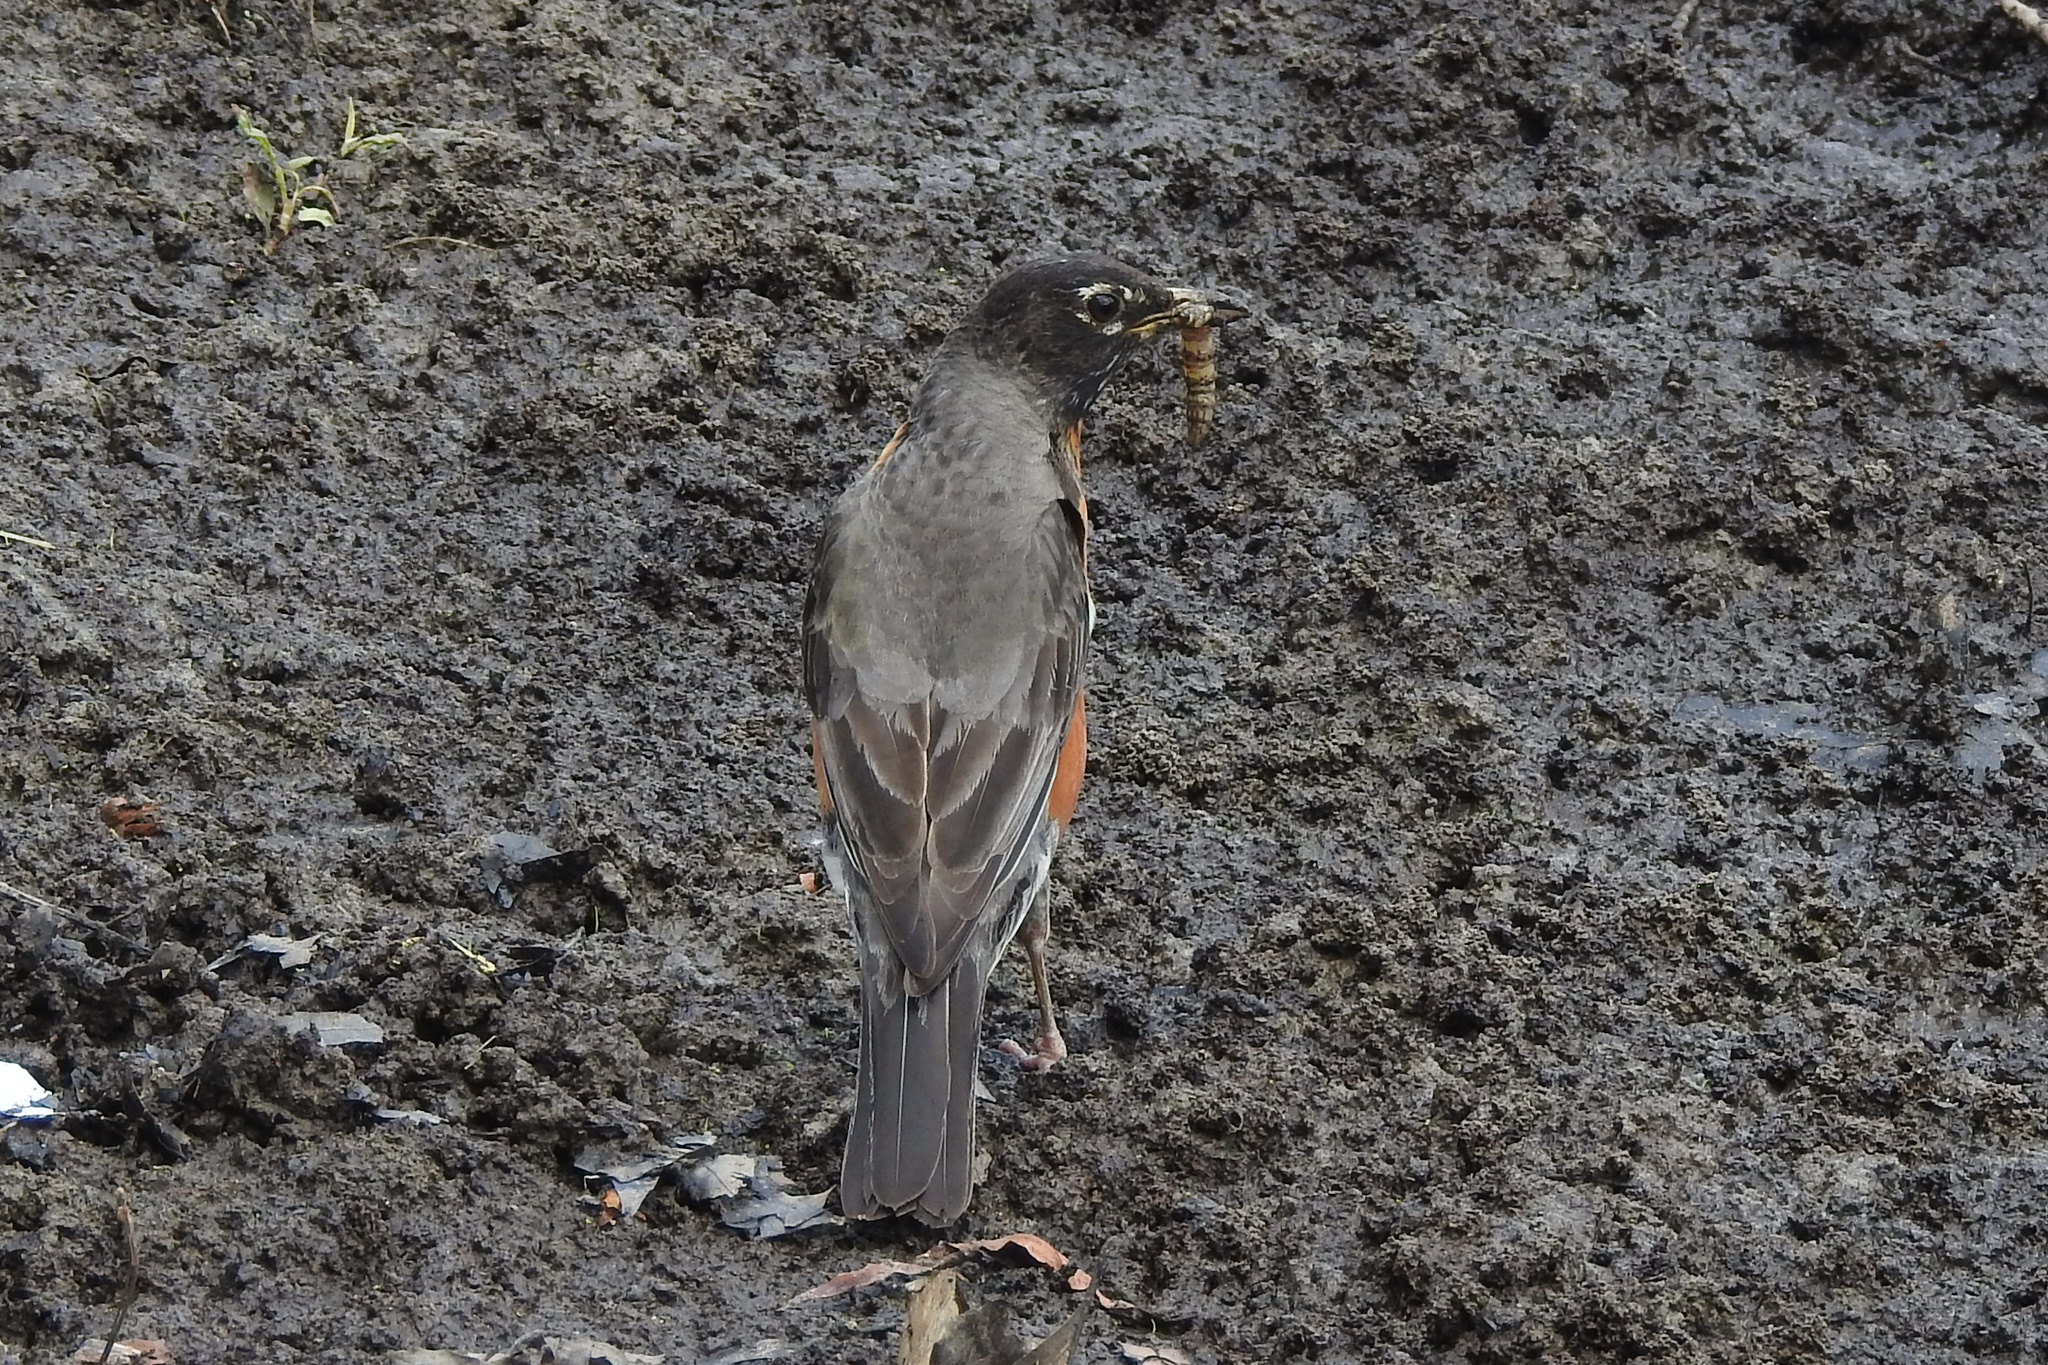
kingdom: Animalia
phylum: Chordata
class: Aves
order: Passeriformes
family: Turdidae
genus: Turdus
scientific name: Turdus migratorius
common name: American robin
